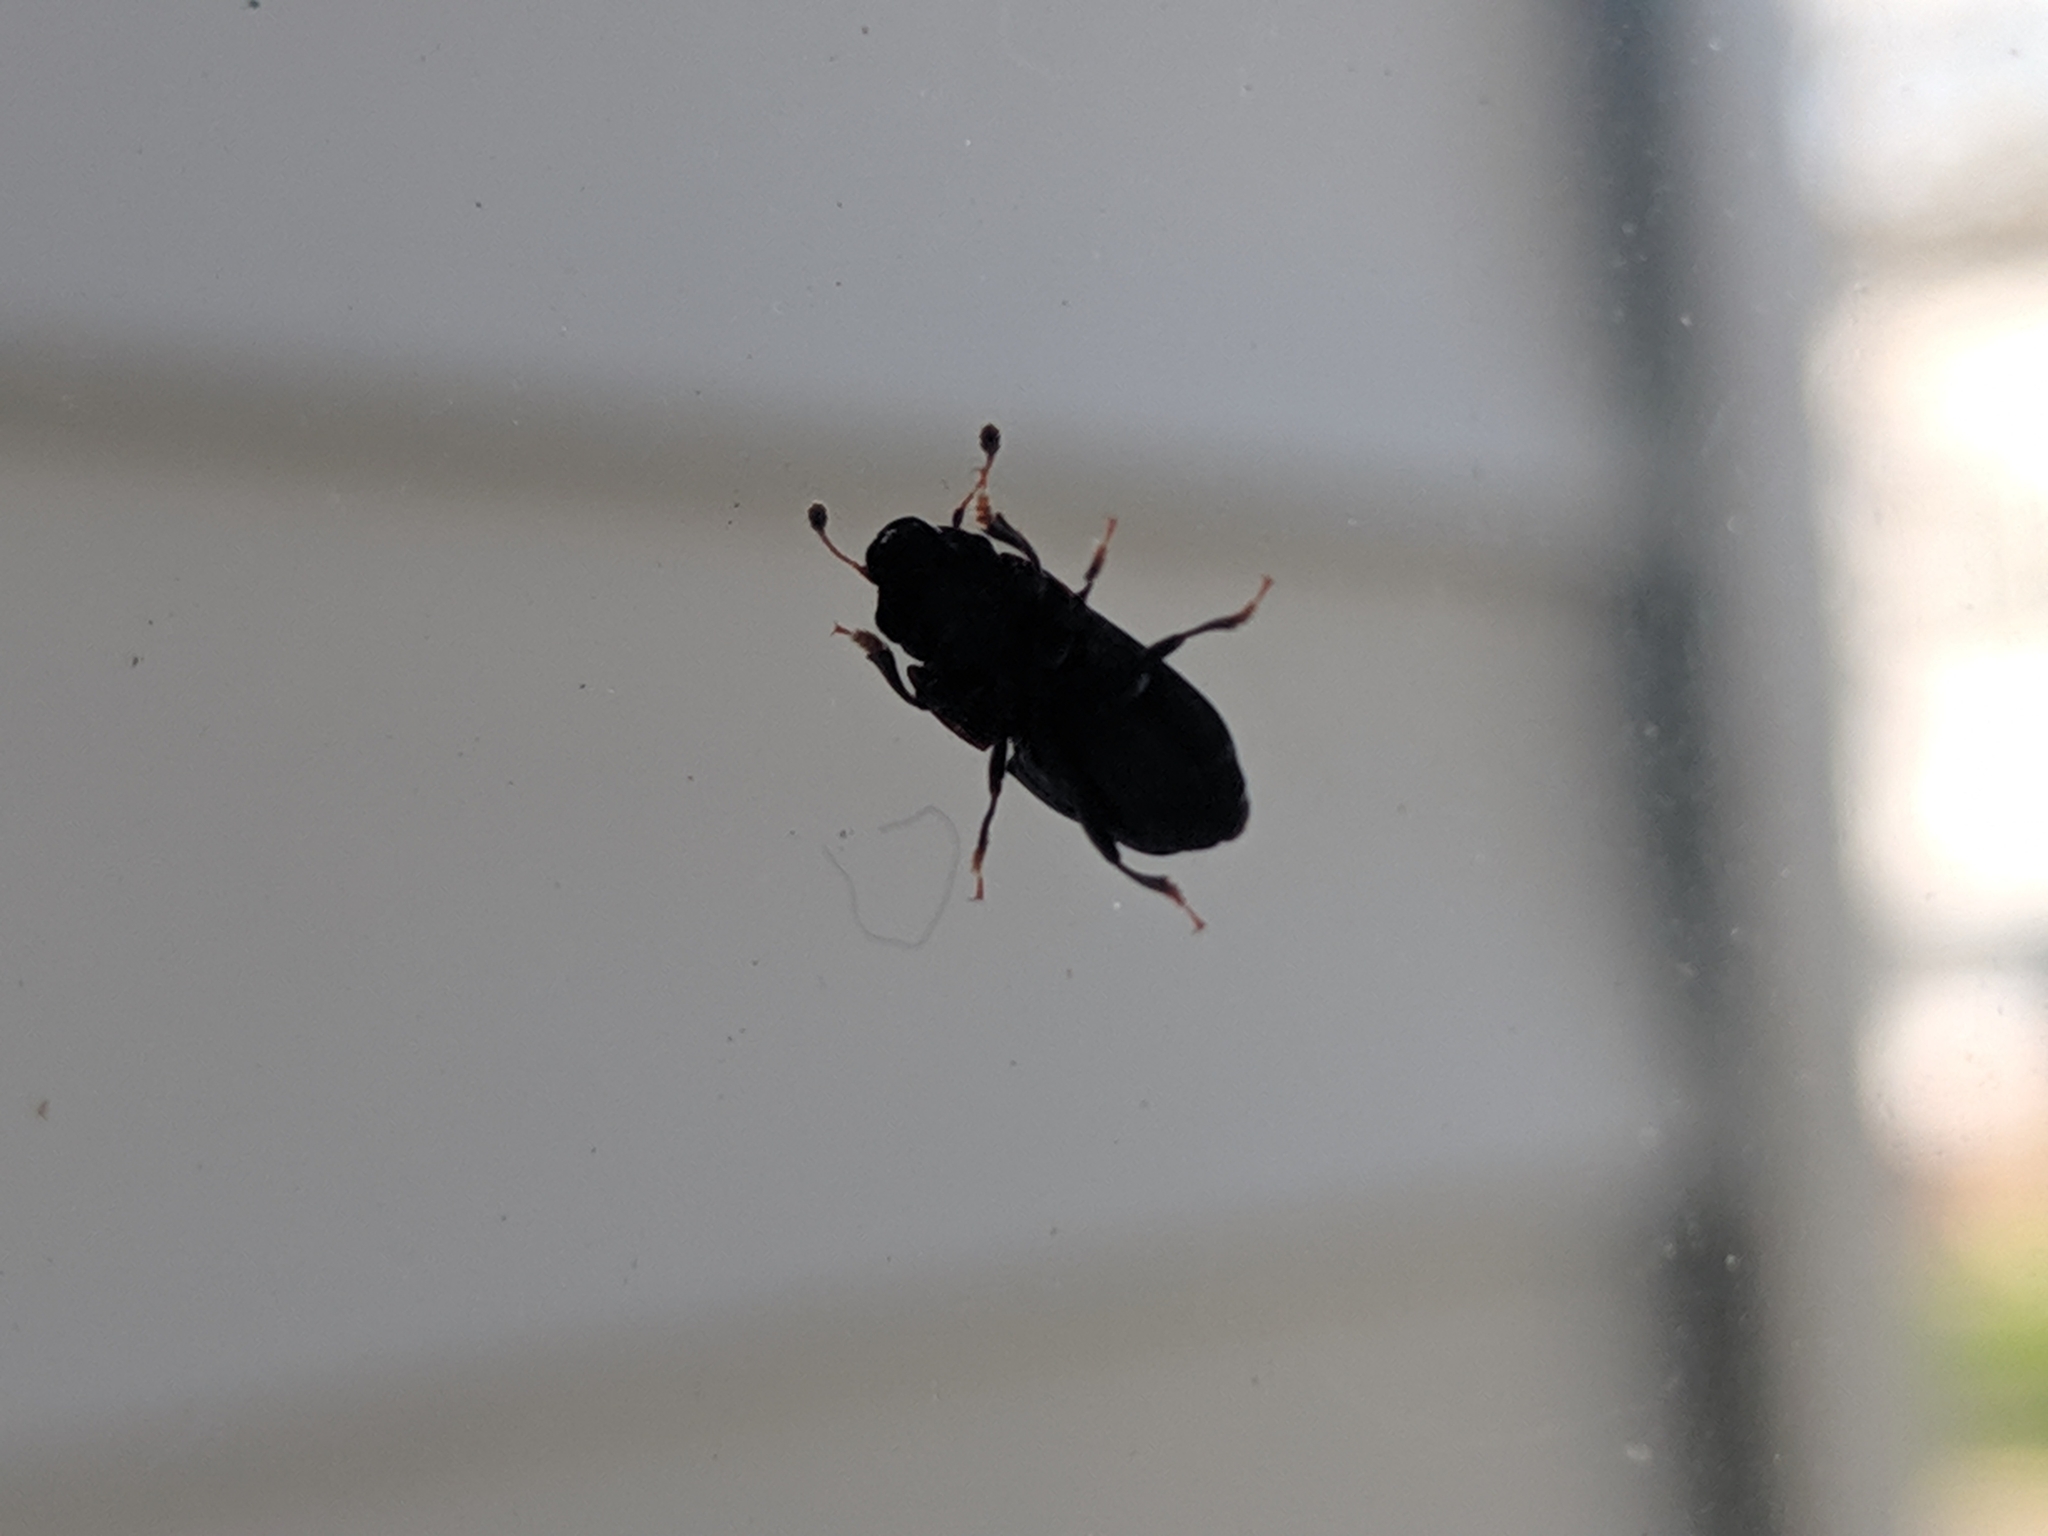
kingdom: Animalia
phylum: Arthropoda
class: Insecta
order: Coleoptera
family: Nitidulidae
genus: Glischrochilus
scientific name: Glischrochilus quadrisignatus
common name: Picnic beetle
